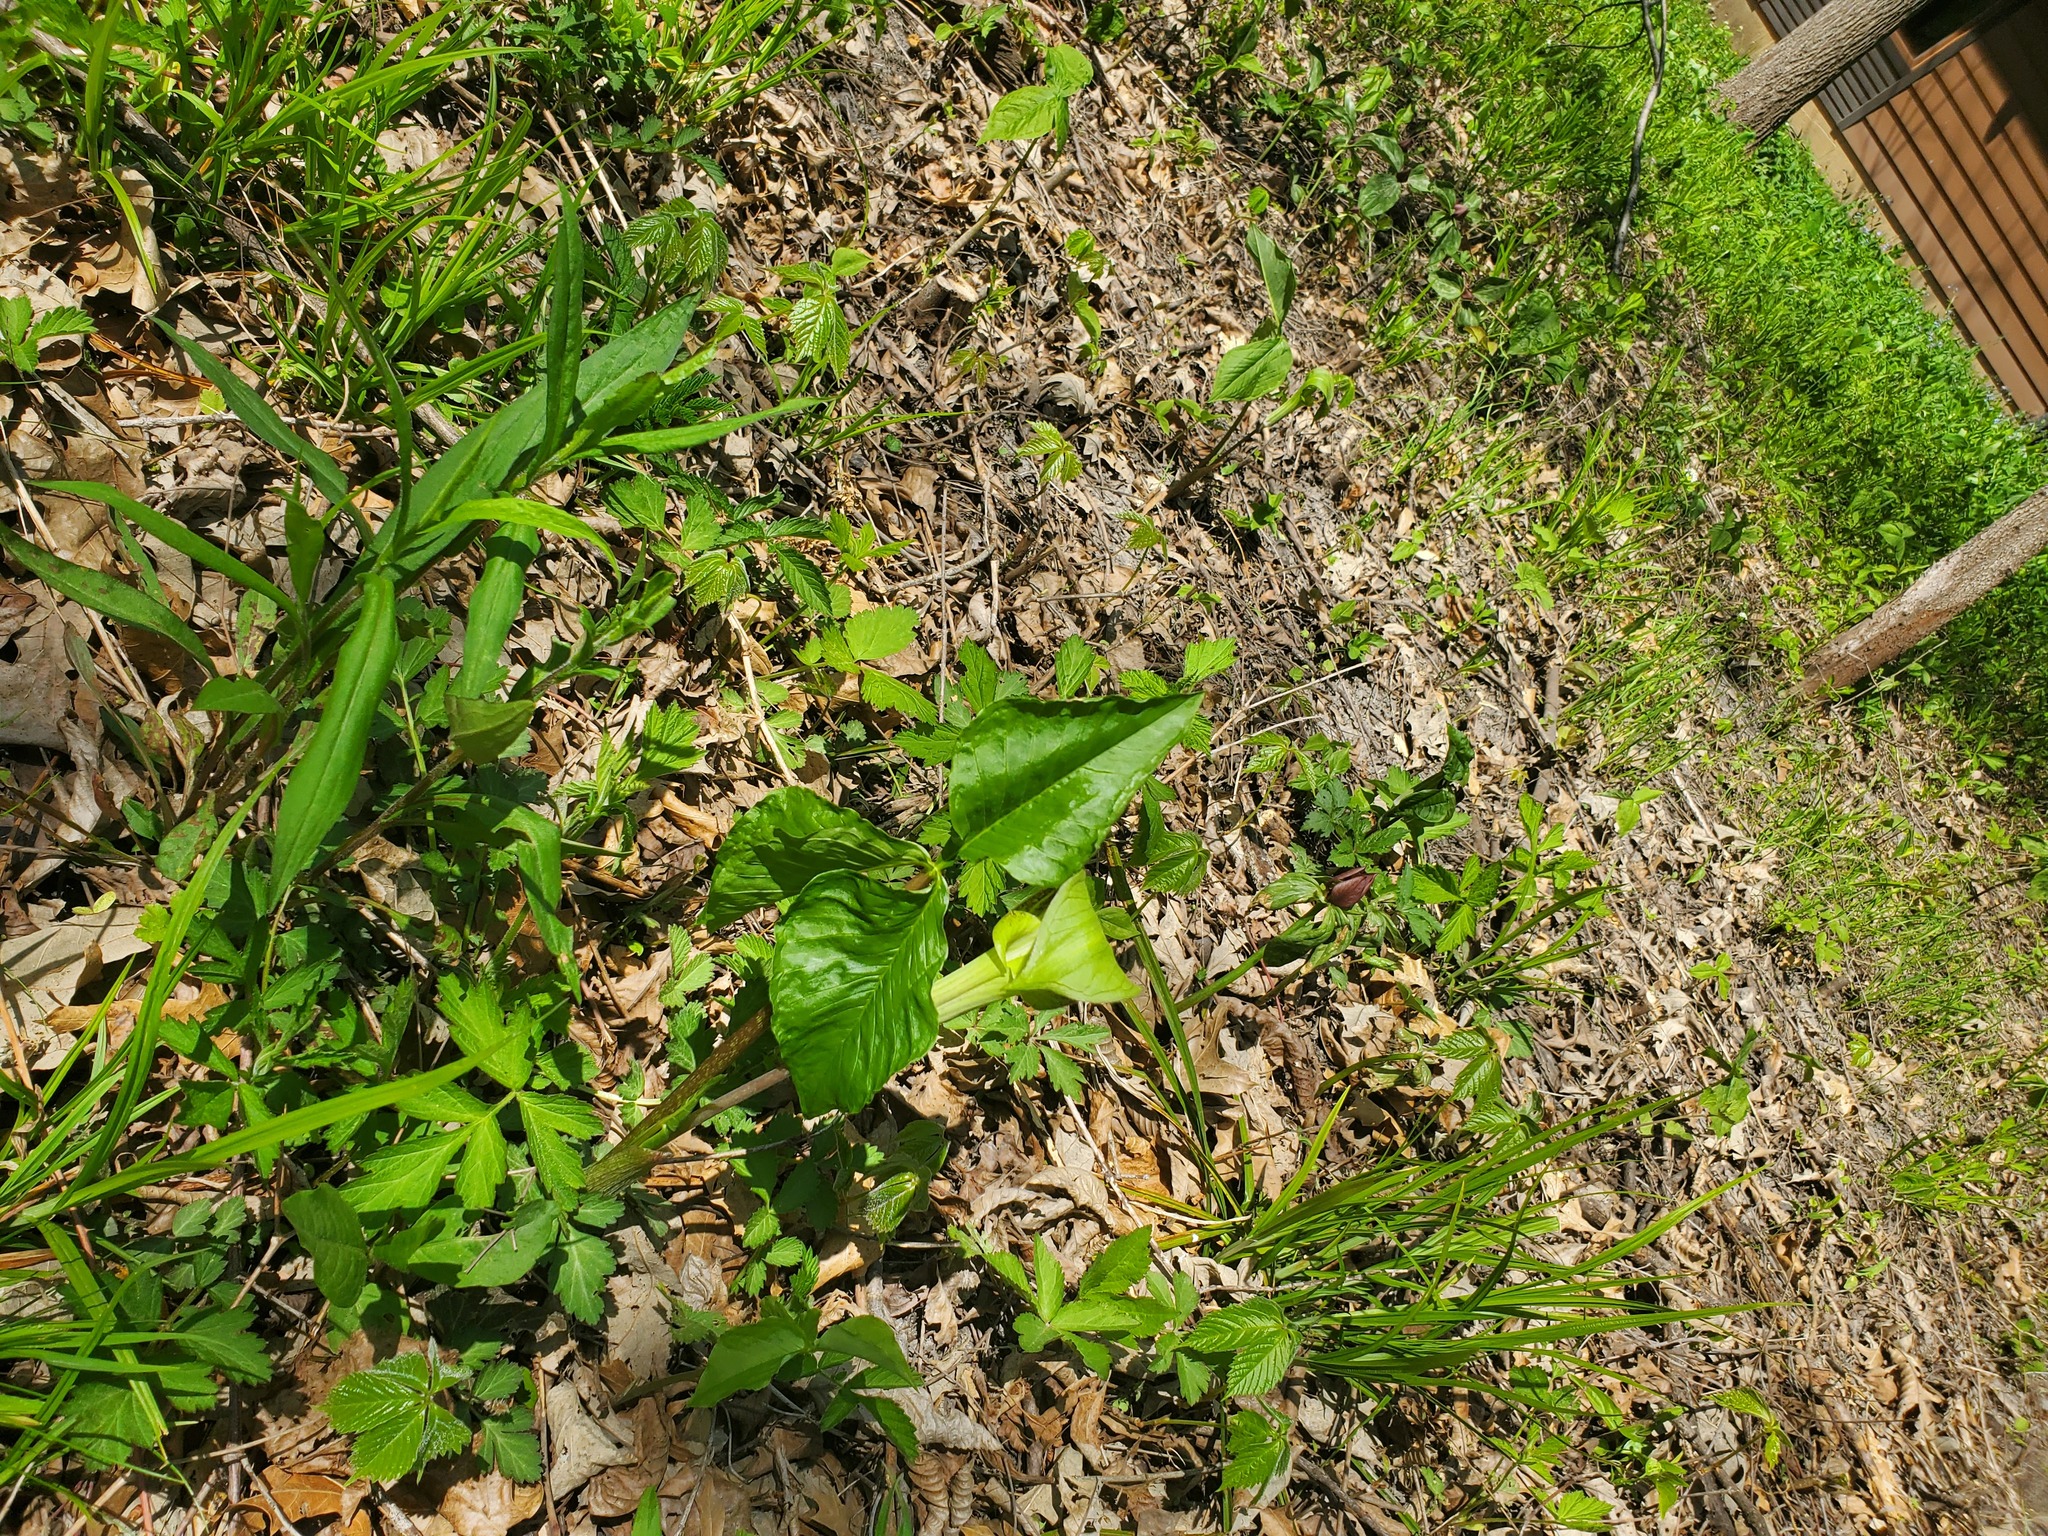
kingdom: Plantae
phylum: Tracheophyta
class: Liliopsida
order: Alismatales
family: Araceae
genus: Arisaema
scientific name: Arisaema triphyllum
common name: Jack-in-the-pulpit
